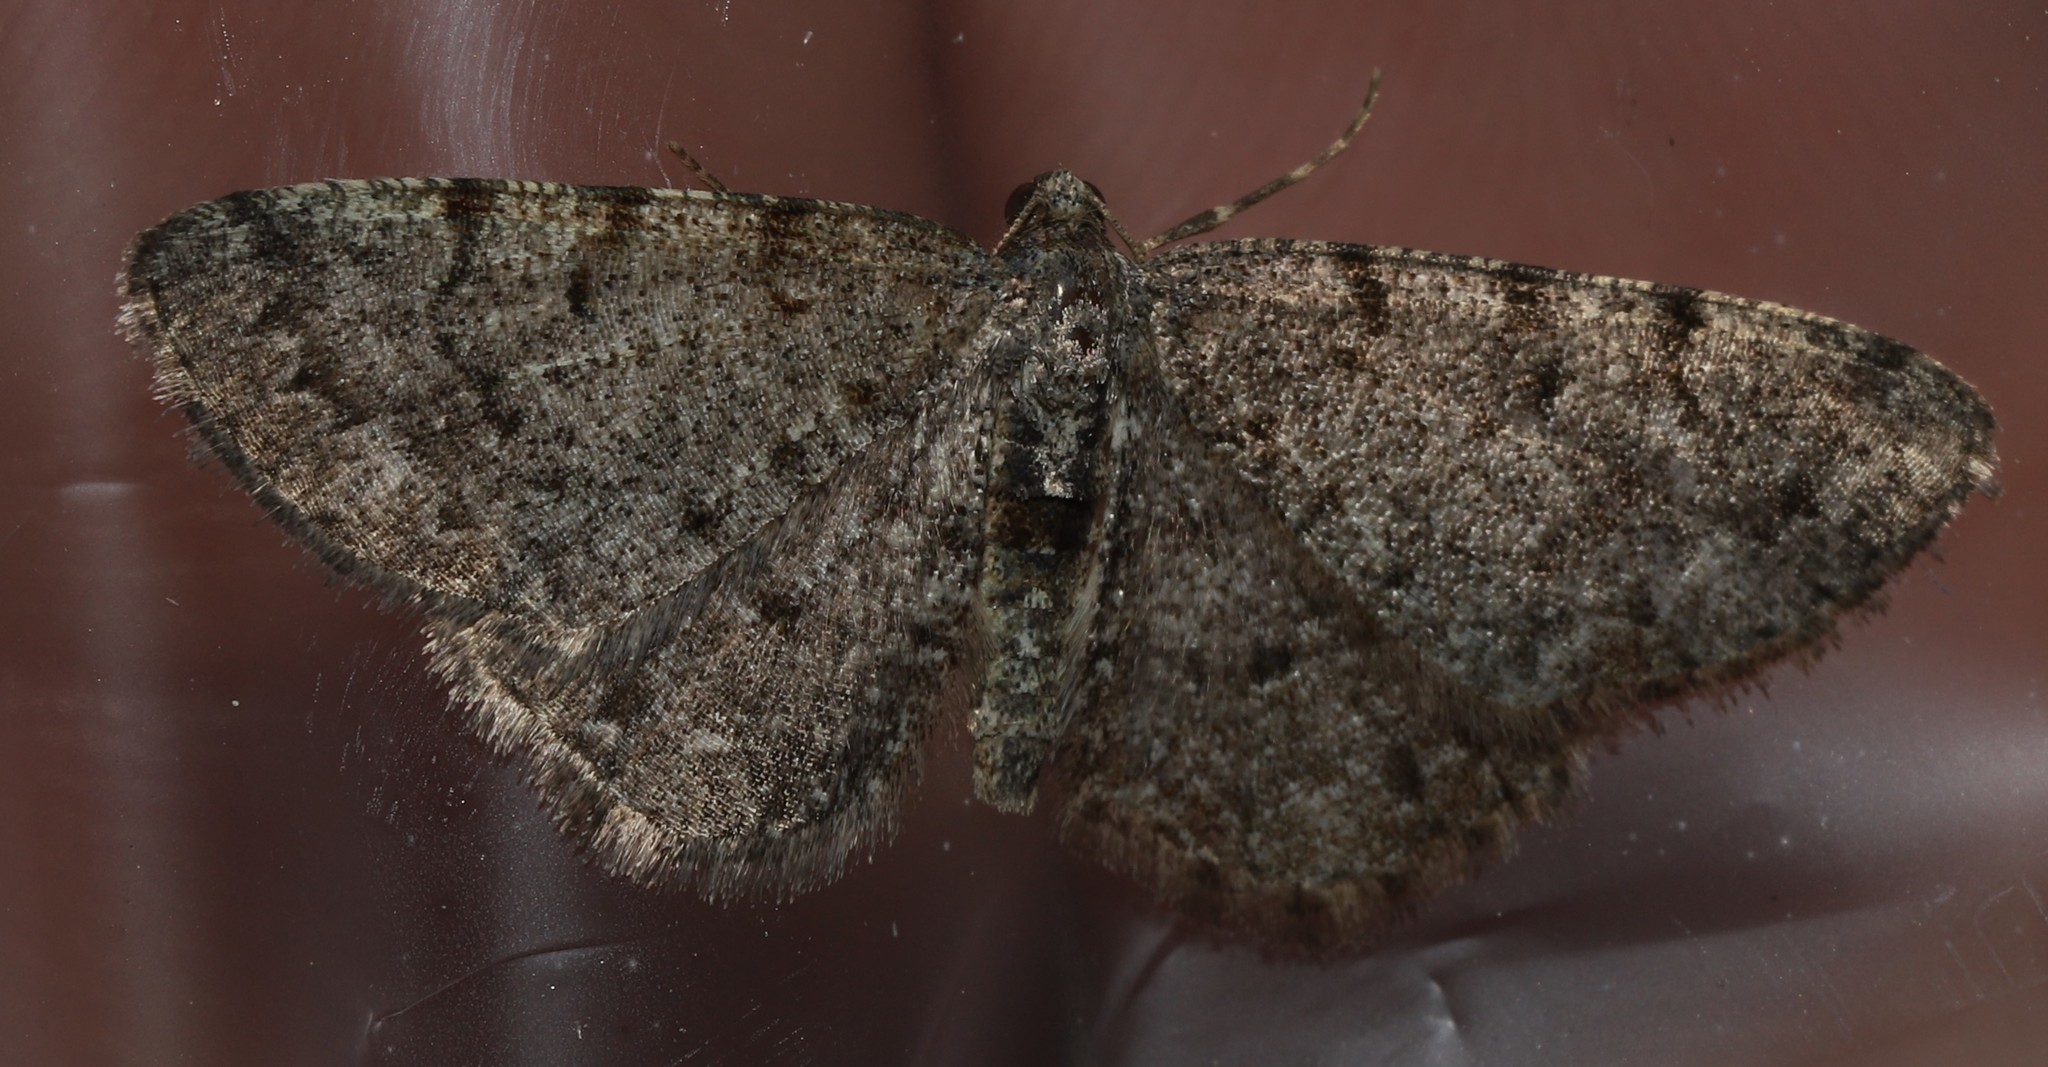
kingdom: Animalia
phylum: Arthropoda
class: Insecta
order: Lepidoptera
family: Geometridae
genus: Aethalura
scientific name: Aethalura intertexta
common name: Four-barred gray
